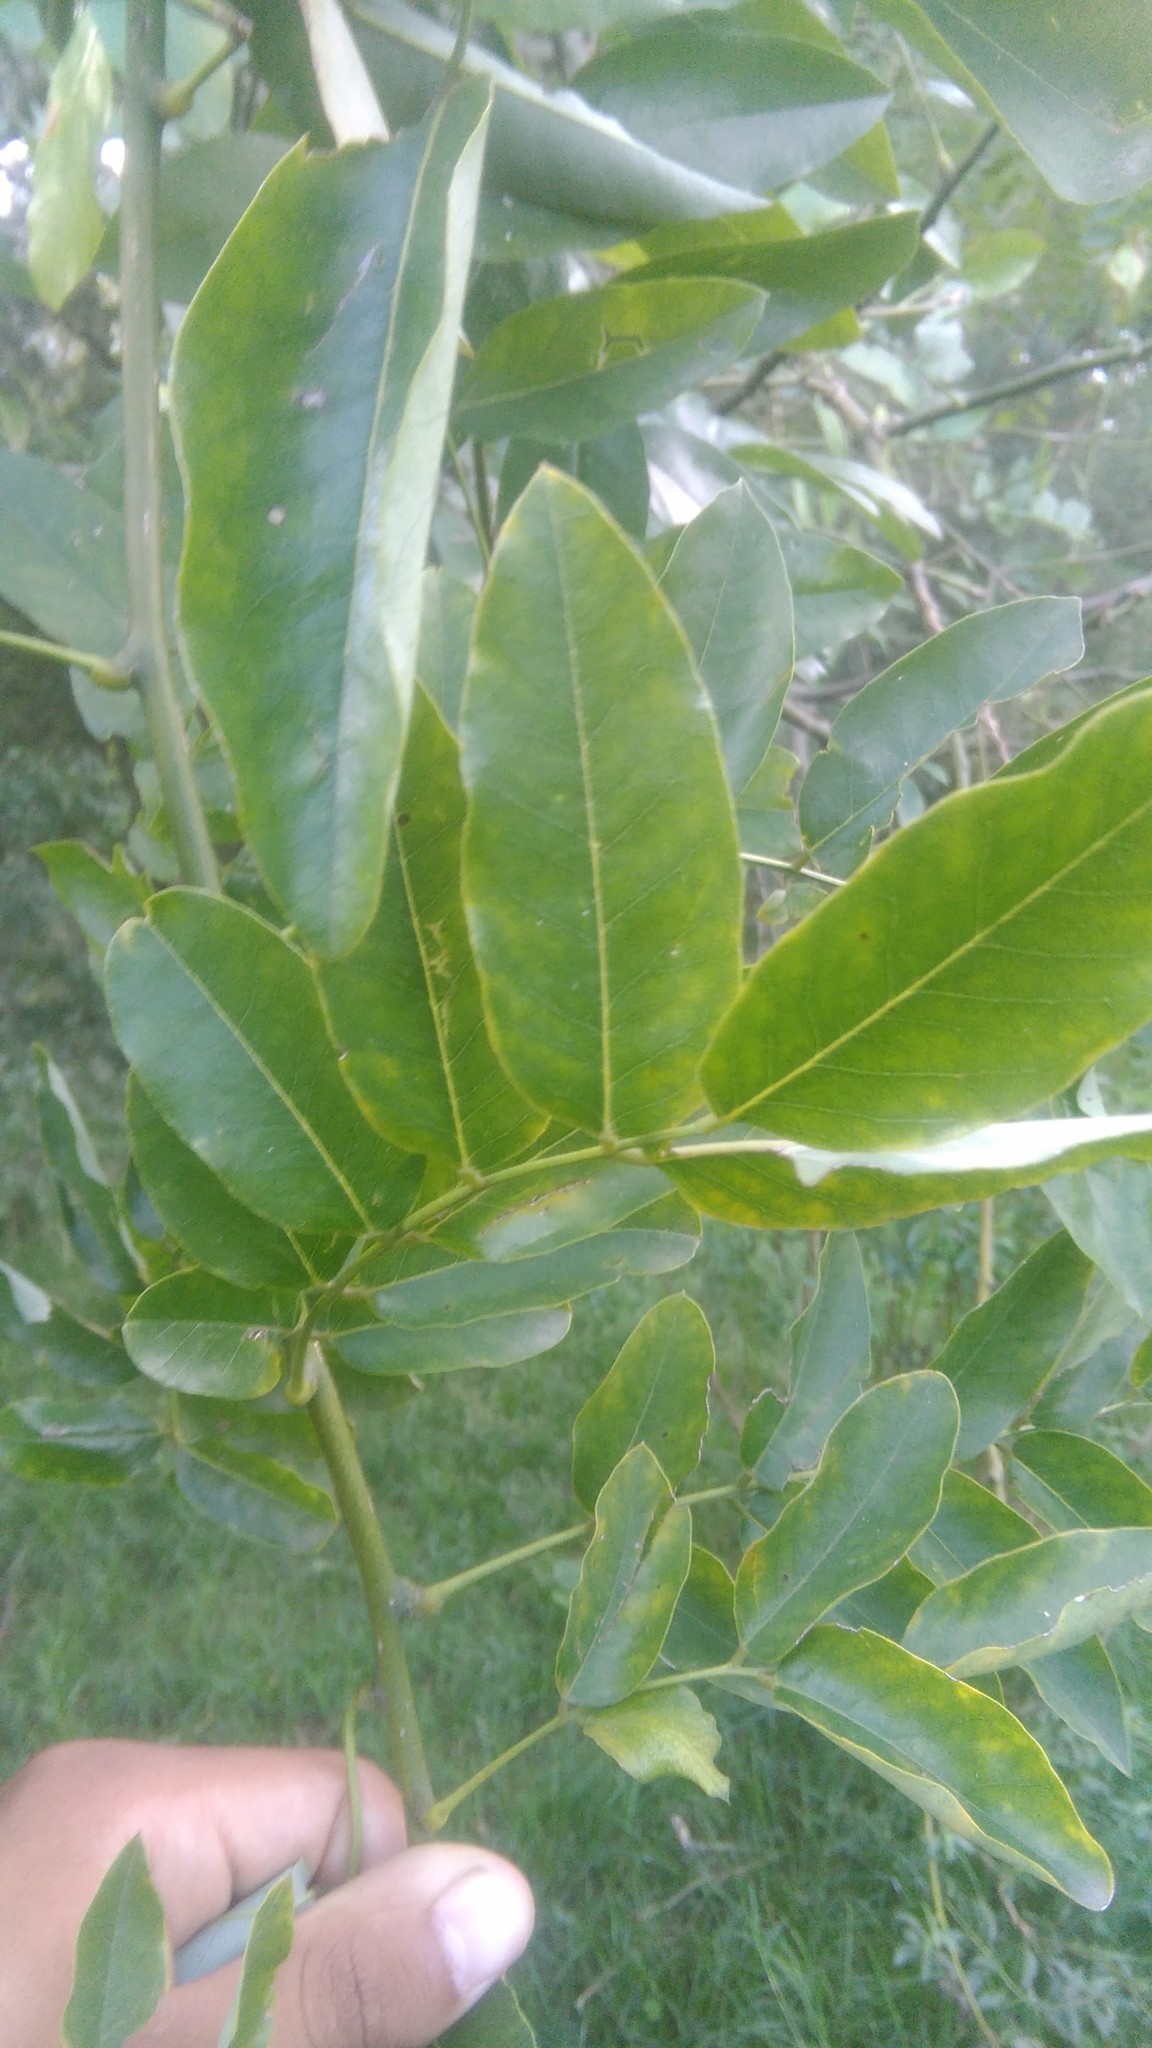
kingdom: Plantae
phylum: Tracheophyta
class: Magnoliopsida
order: Fabales
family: Fabaceae
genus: Styphnolobium
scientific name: Styphnolobium japonicum
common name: Chinese scholartree
